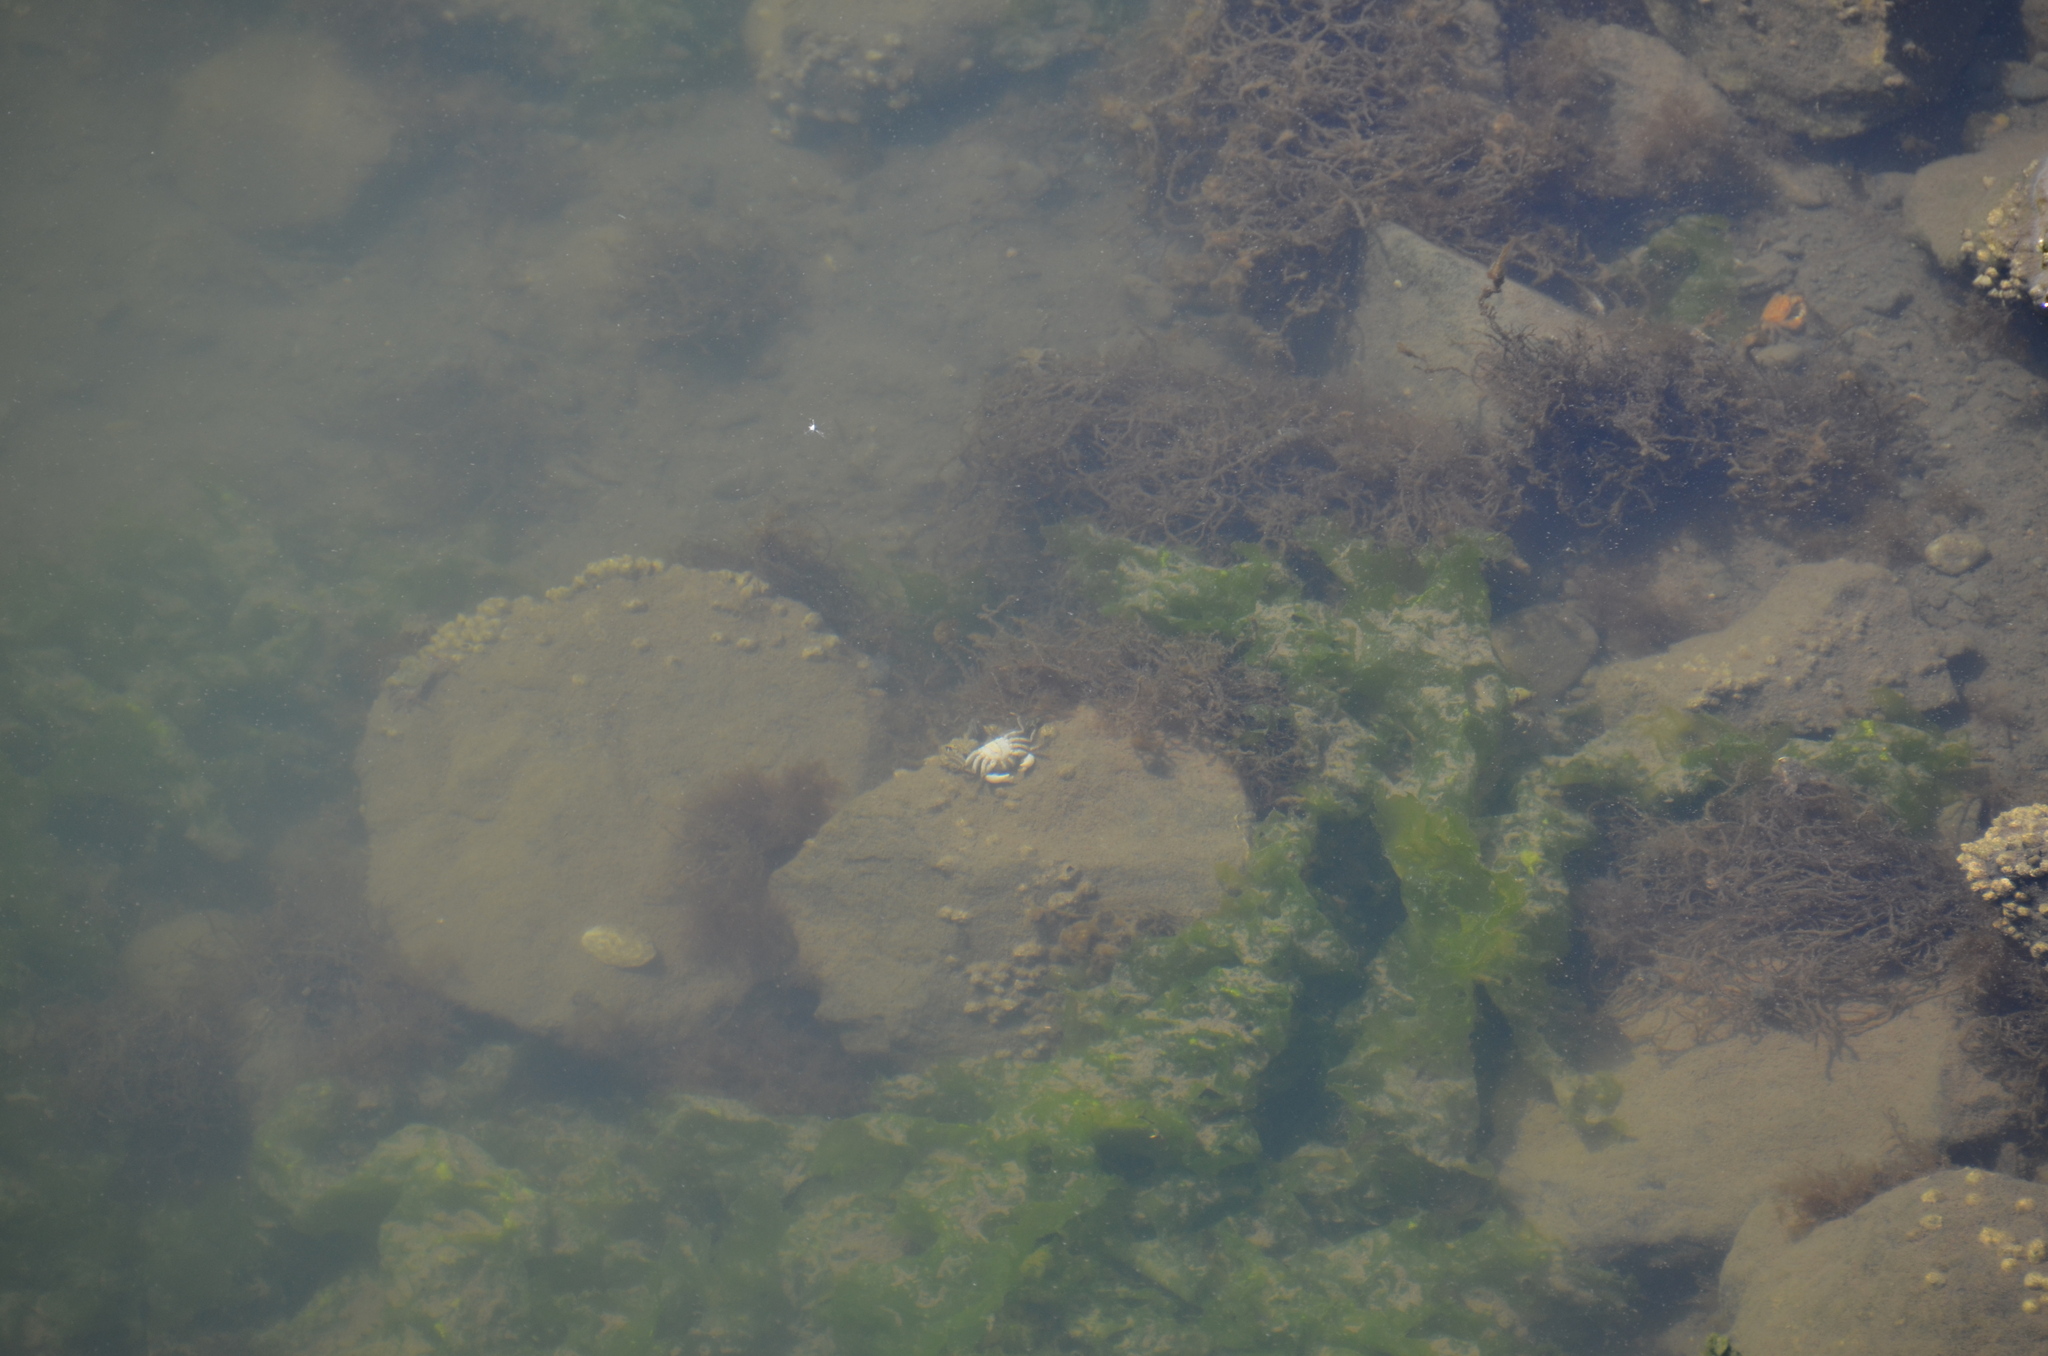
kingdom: Animalia
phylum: Arthropoda
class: Malacostraca
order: Decapoda
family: Varunidae
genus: Hemigrapsus
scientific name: Hemigrapsus oregonensis
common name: Yellow shore crab
